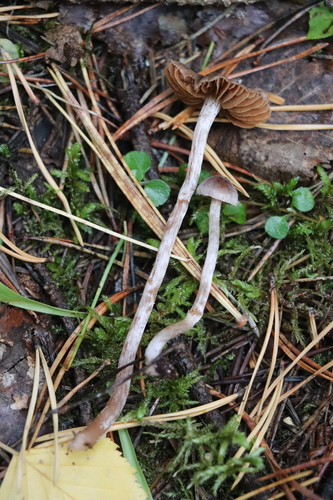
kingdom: Fungi
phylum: Basidiomycota
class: Agaricomycetes
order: Agaricales
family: Cortinariaceae
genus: Cortinarius
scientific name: Cortinarius
